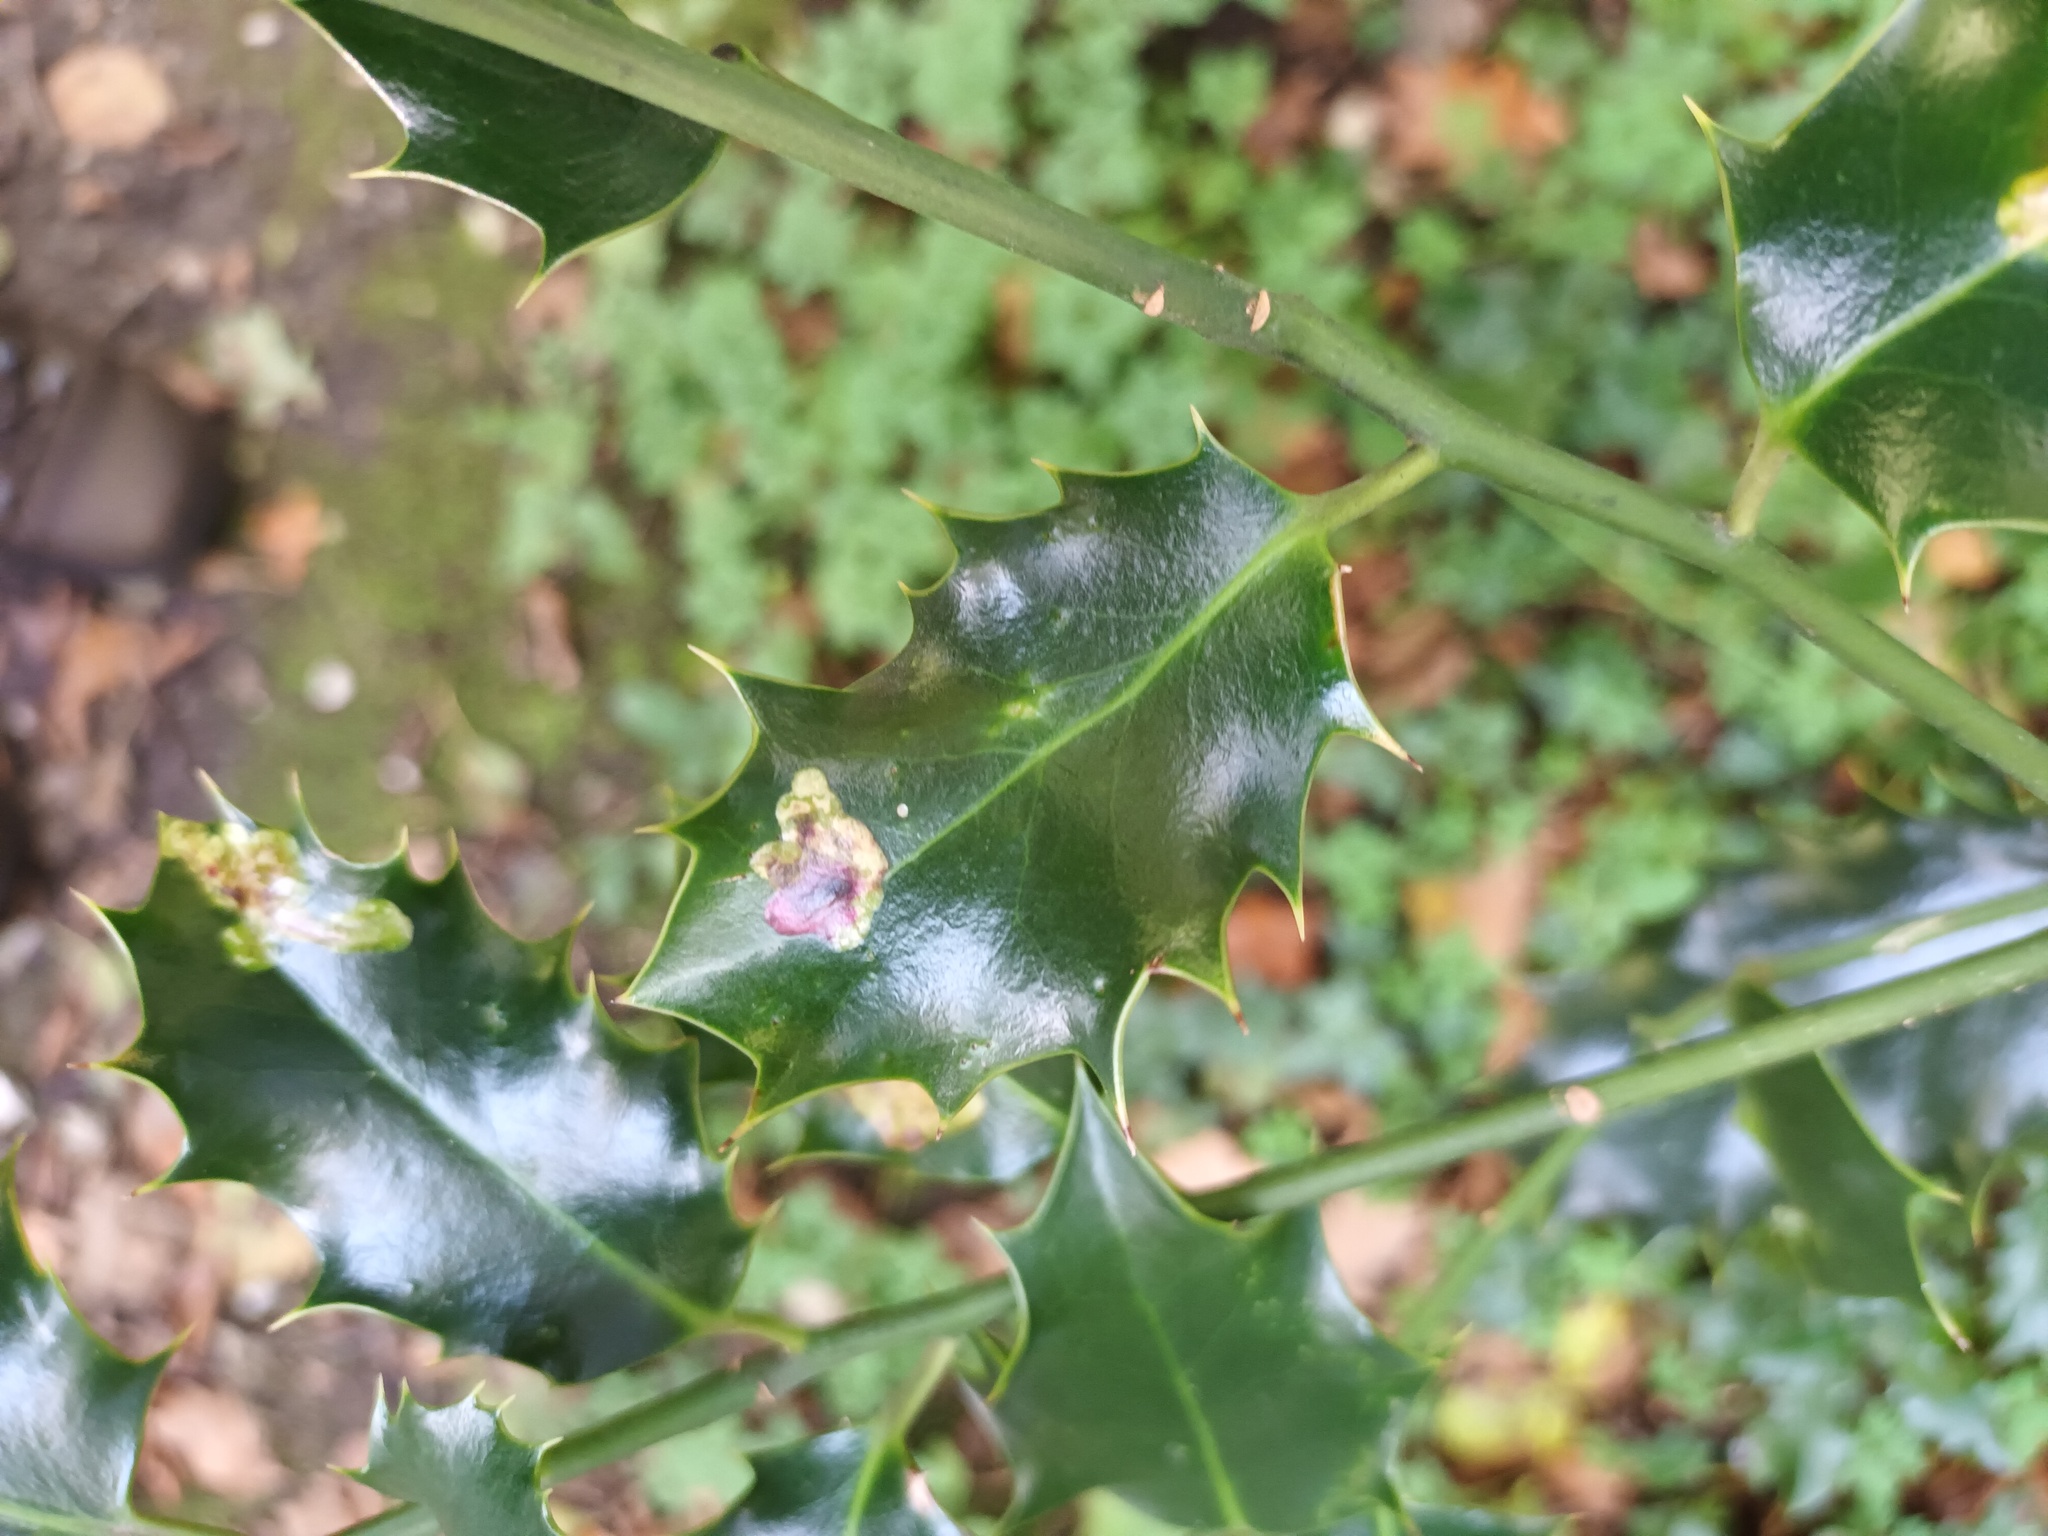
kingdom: Animalia
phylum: Arthropoda
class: Insecta
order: Diptera
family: Agromyzidae
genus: Phytomyza
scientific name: Phytomyza ilicis
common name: Holly leafminer
